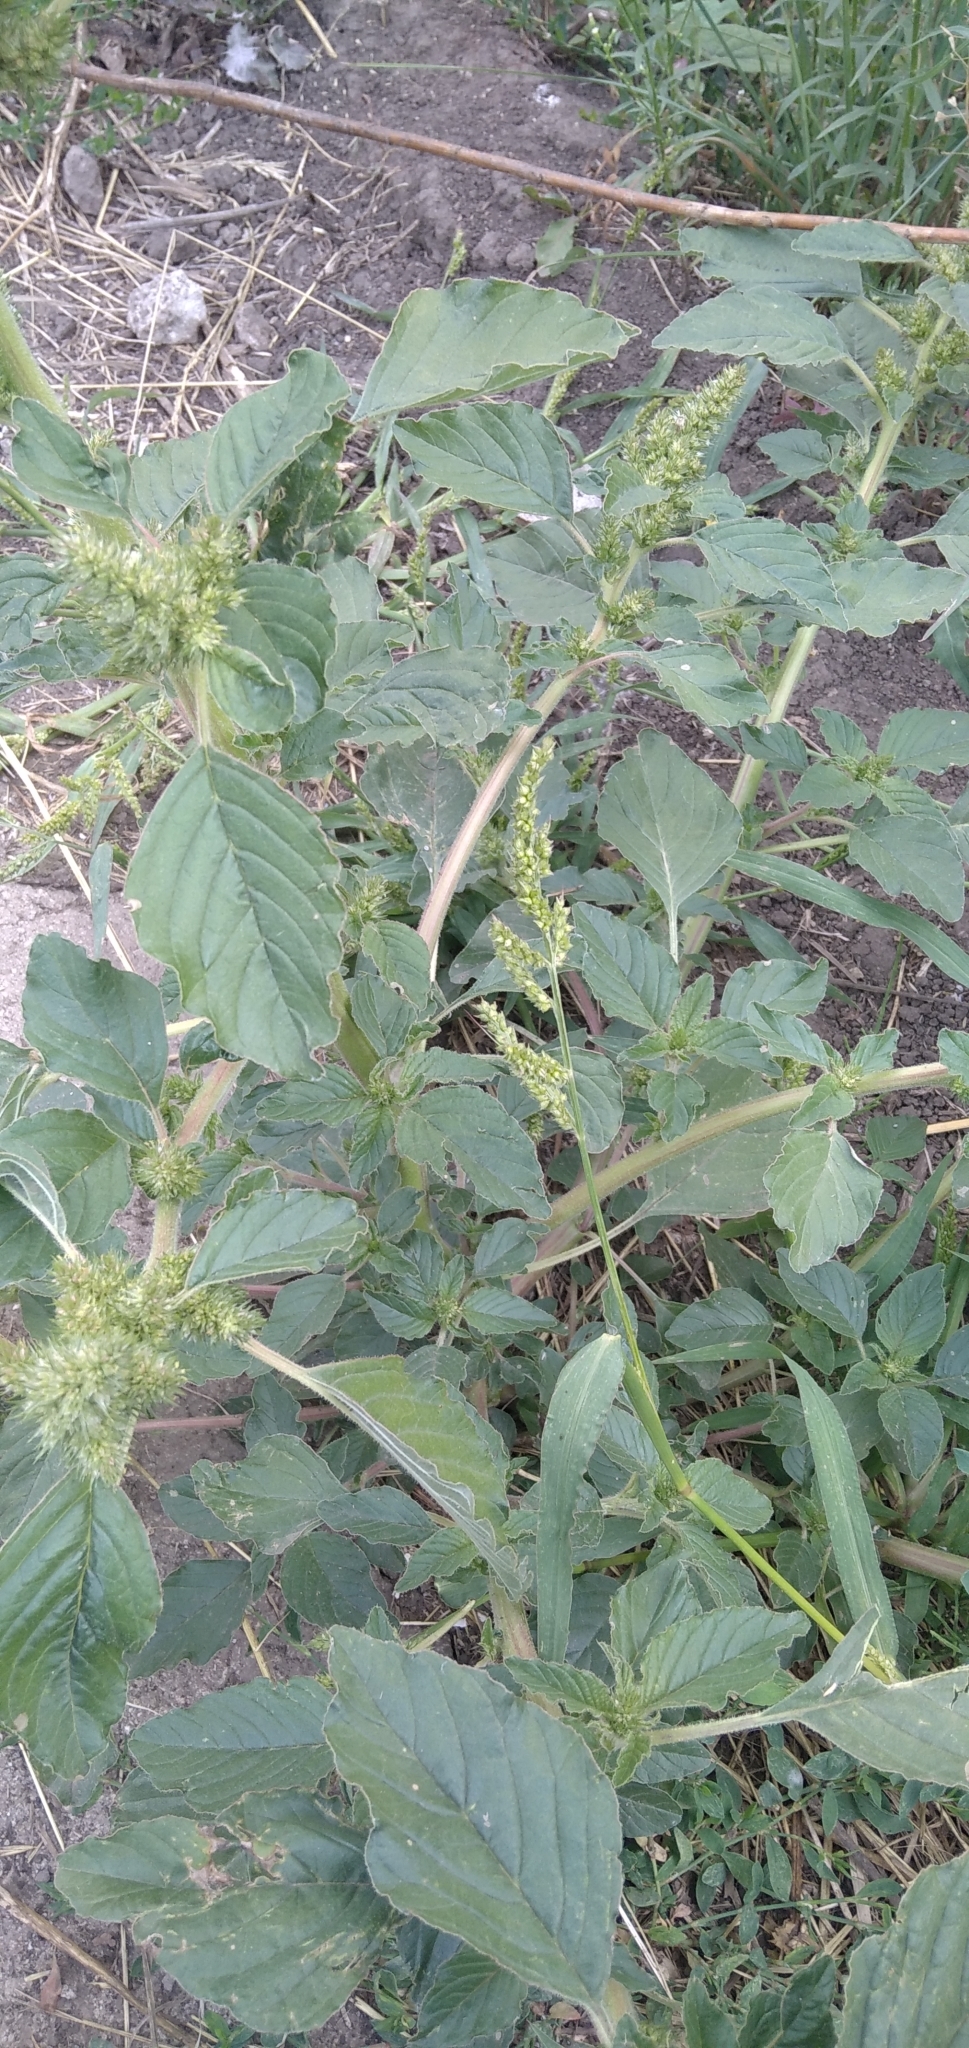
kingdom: Plantae
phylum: Tracheophyta
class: Magnoliopsida
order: Caryophyllales
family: Amaranthaceae
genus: Amaranthus
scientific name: Amaranthus retroflexus
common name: Redroot amaranth
